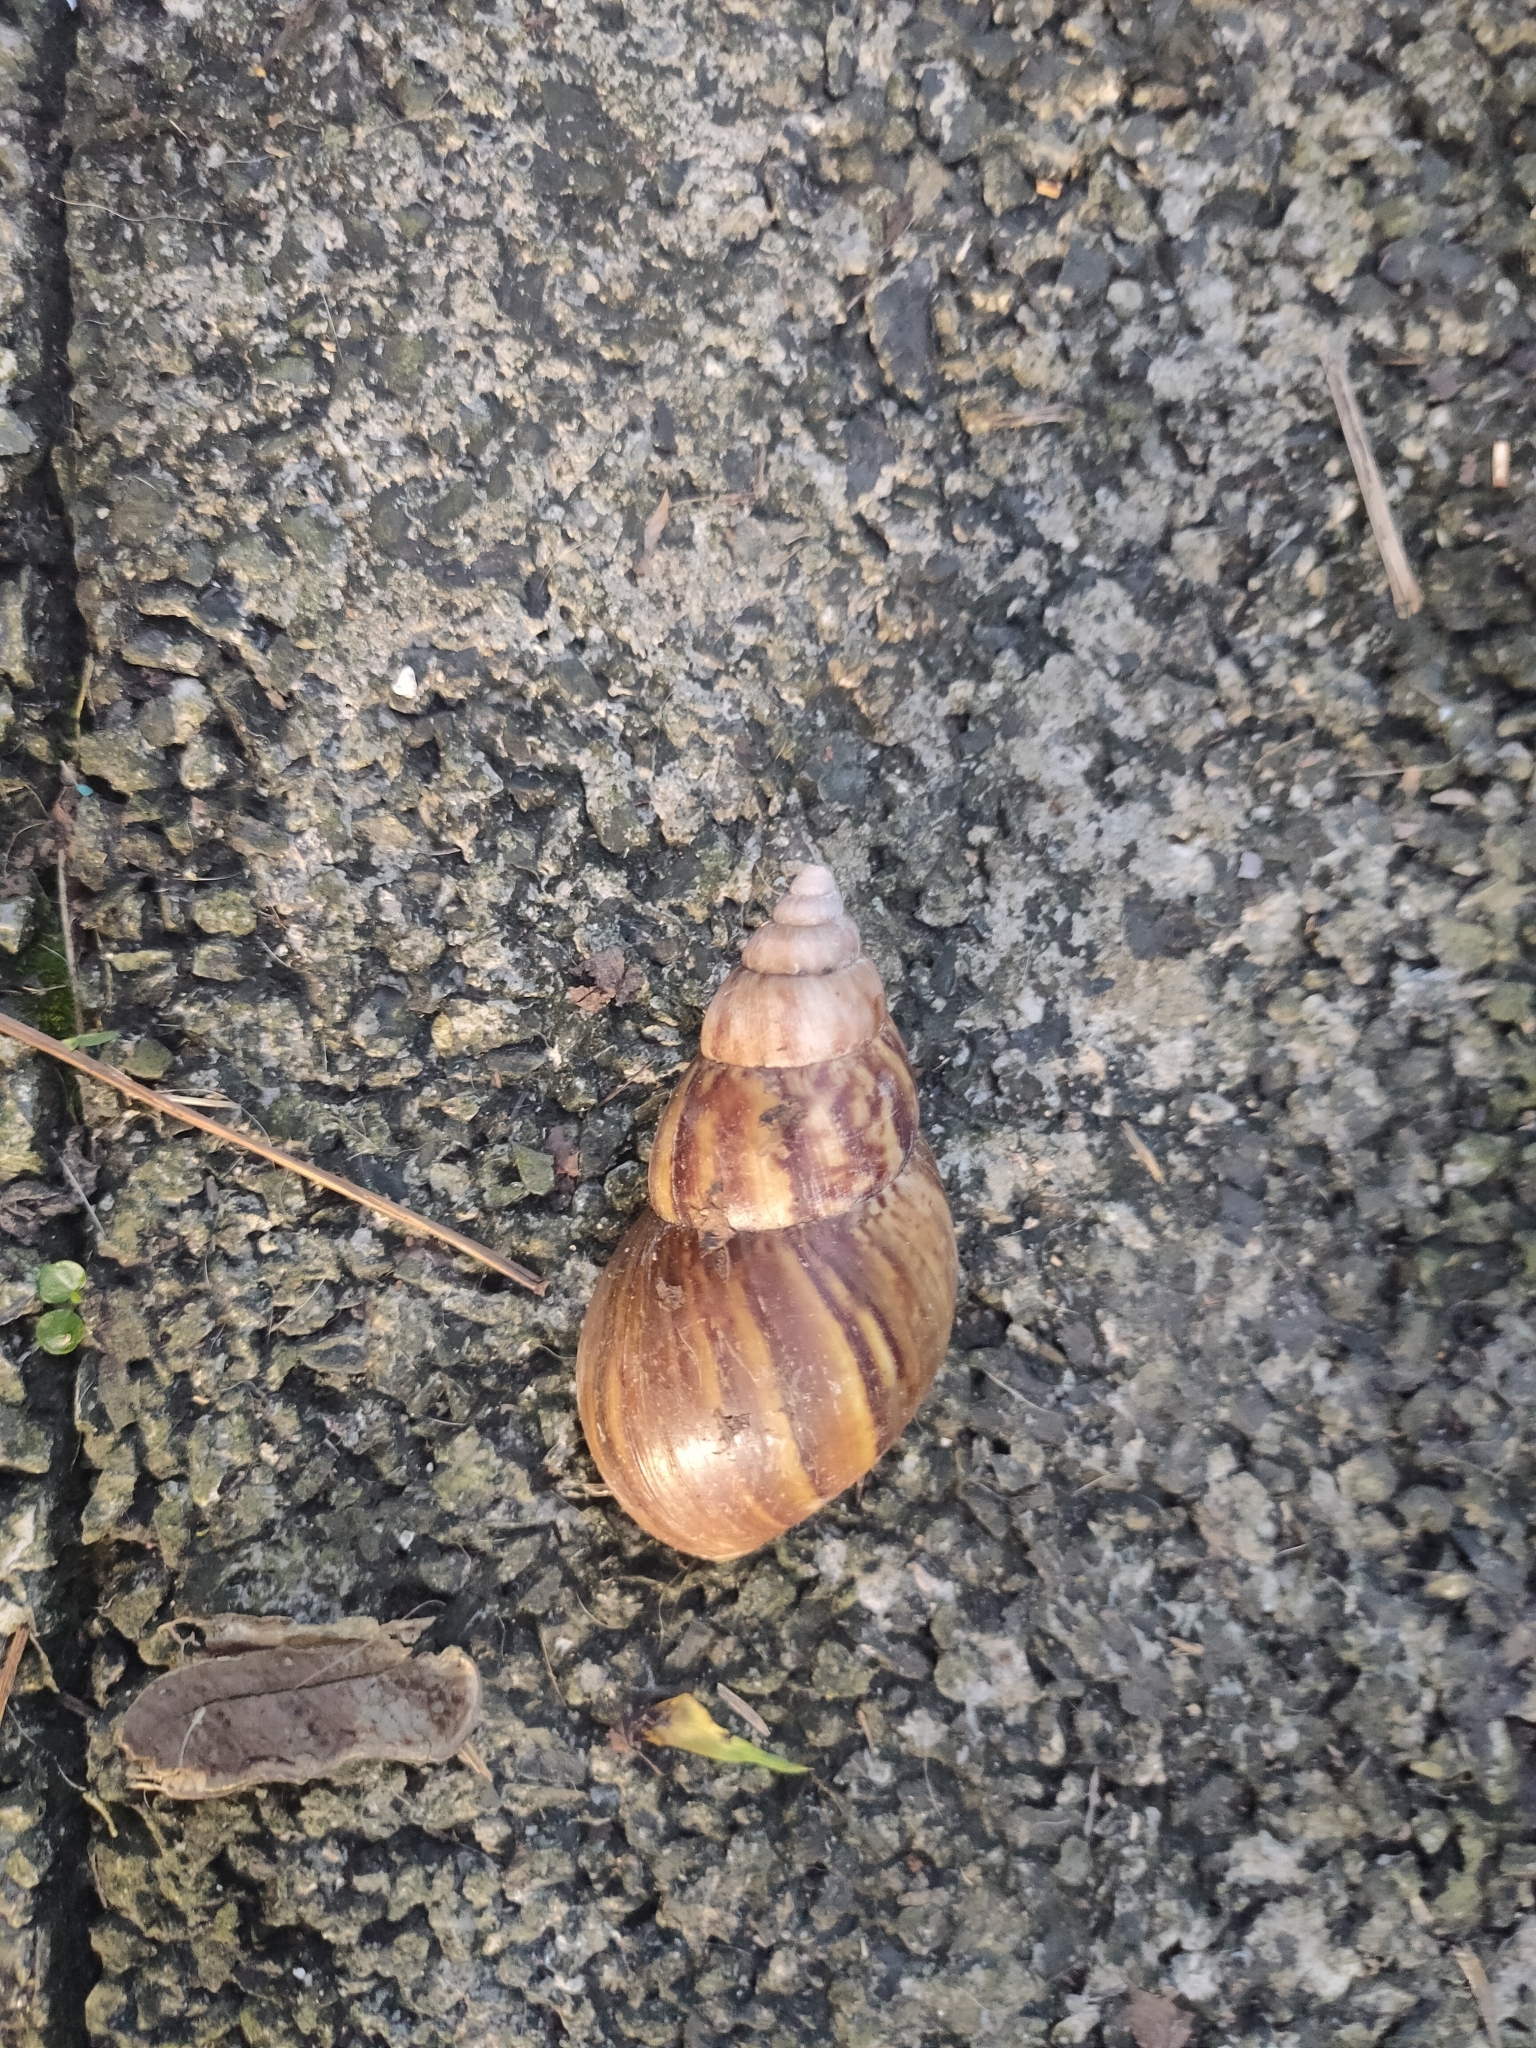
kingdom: Animalia
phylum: Mollusca
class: Gastropoda
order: Stylommatophora
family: Achatinidae
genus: Lissachatina
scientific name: Lissachatina fulica
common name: Giant african snail
